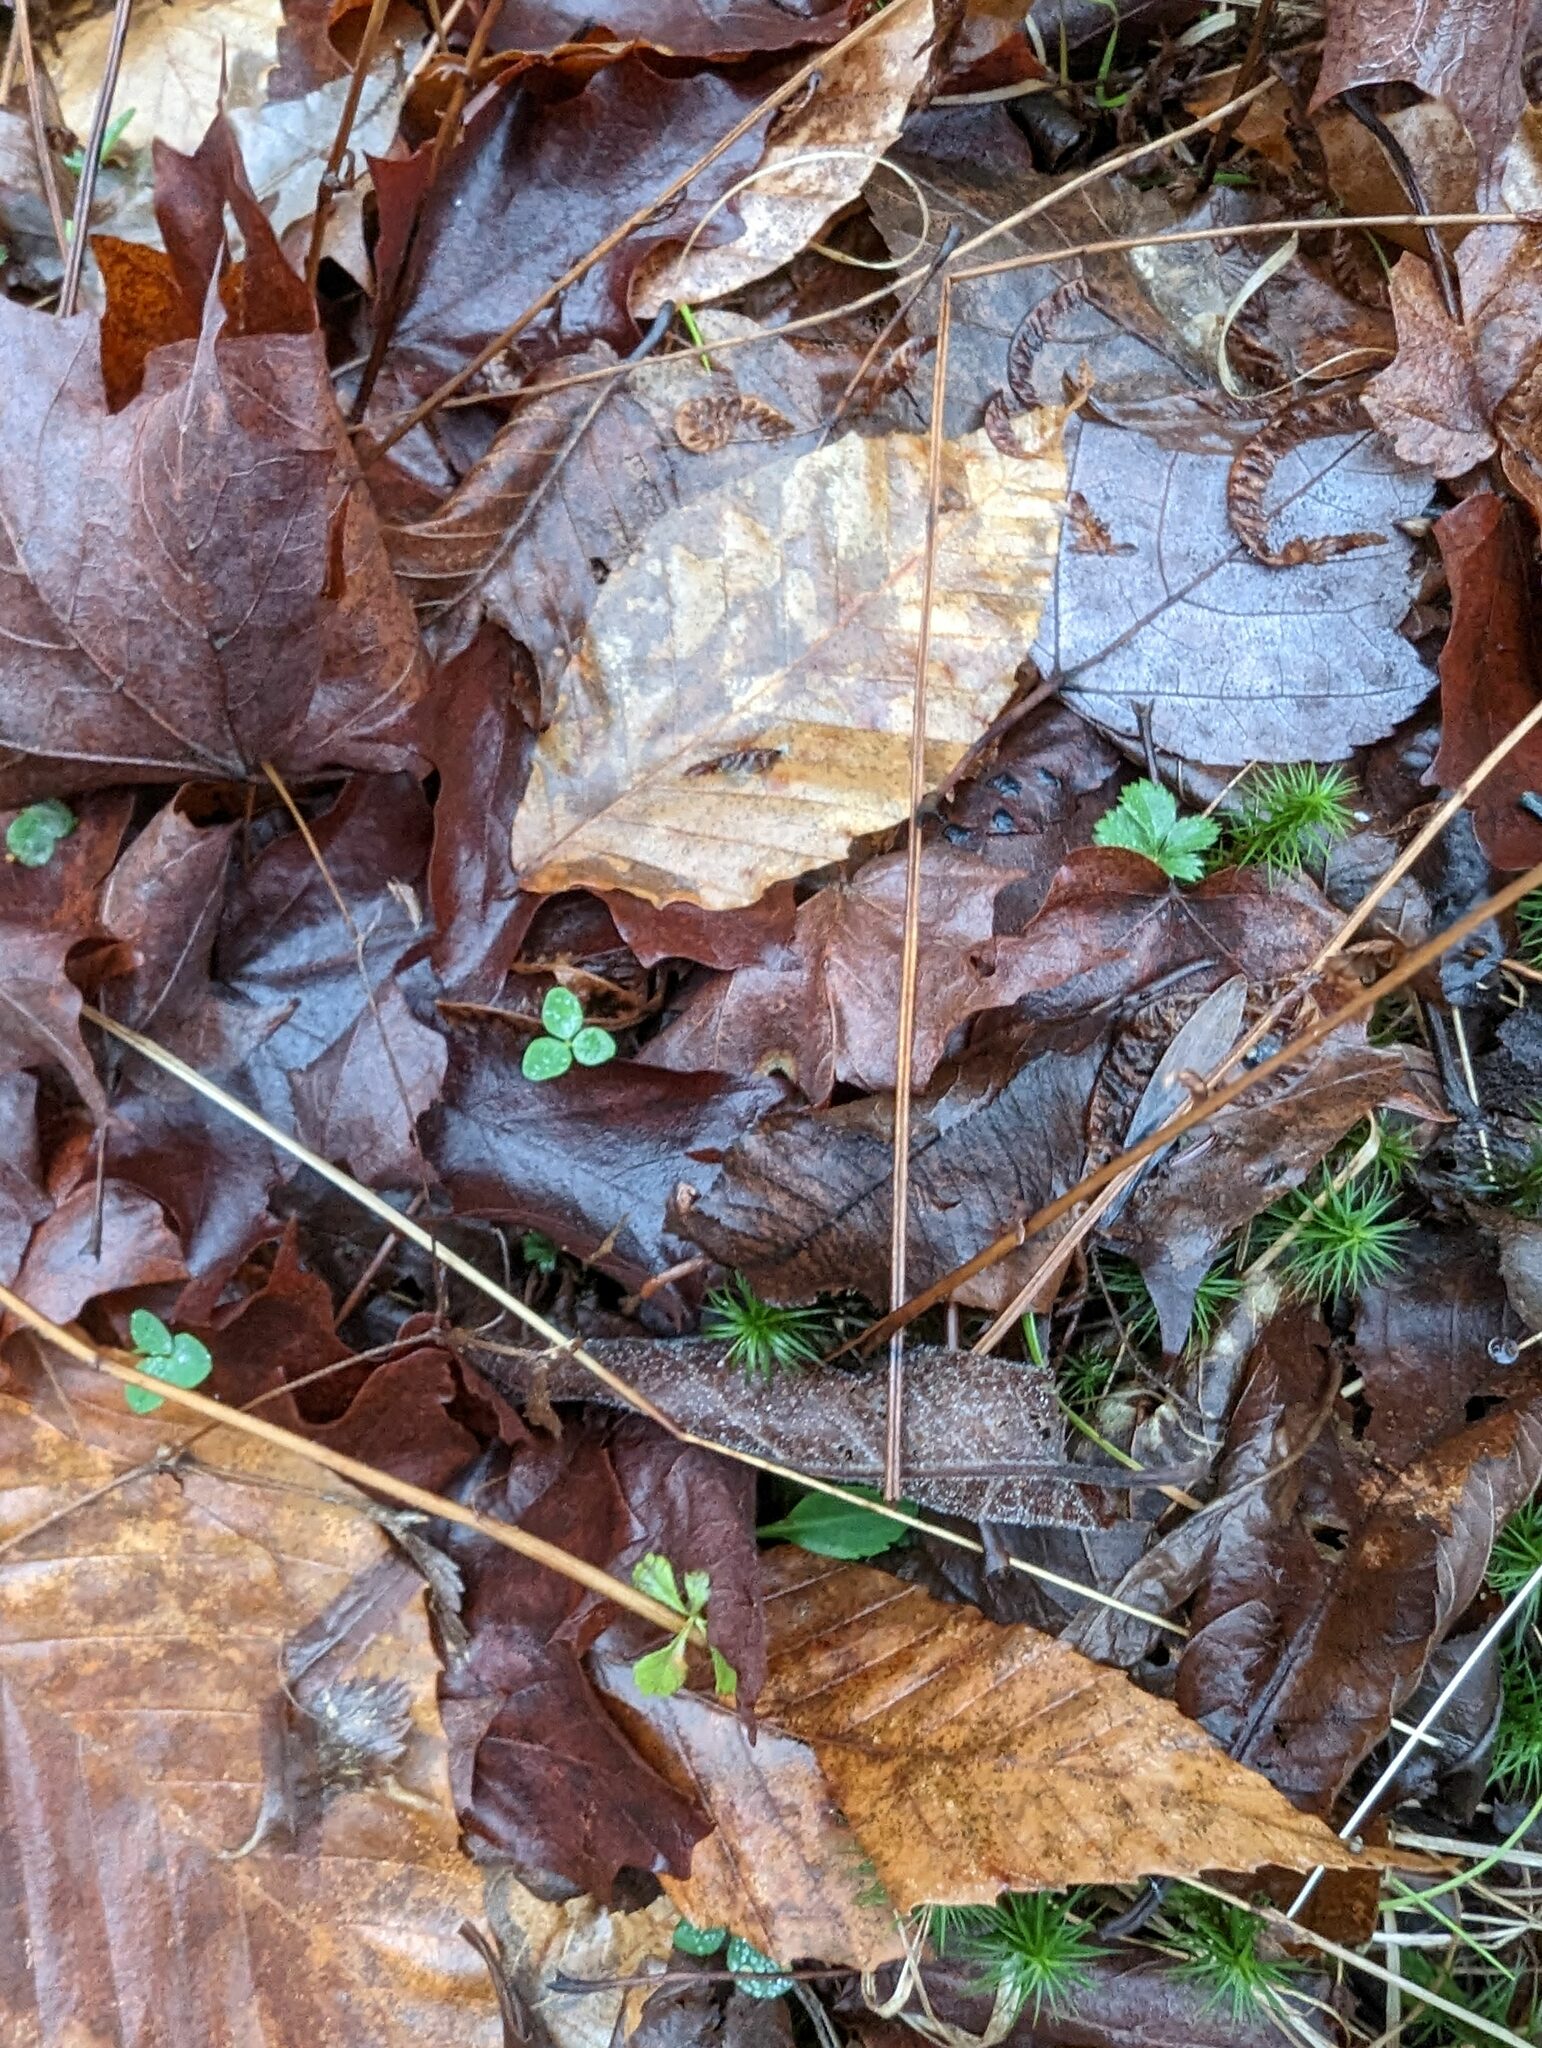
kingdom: Plantae
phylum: Tracheophyta
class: Magnoliopsida
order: Fagales
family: Fagaceae
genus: Fagus
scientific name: Fagus grandifolia
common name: American beech
